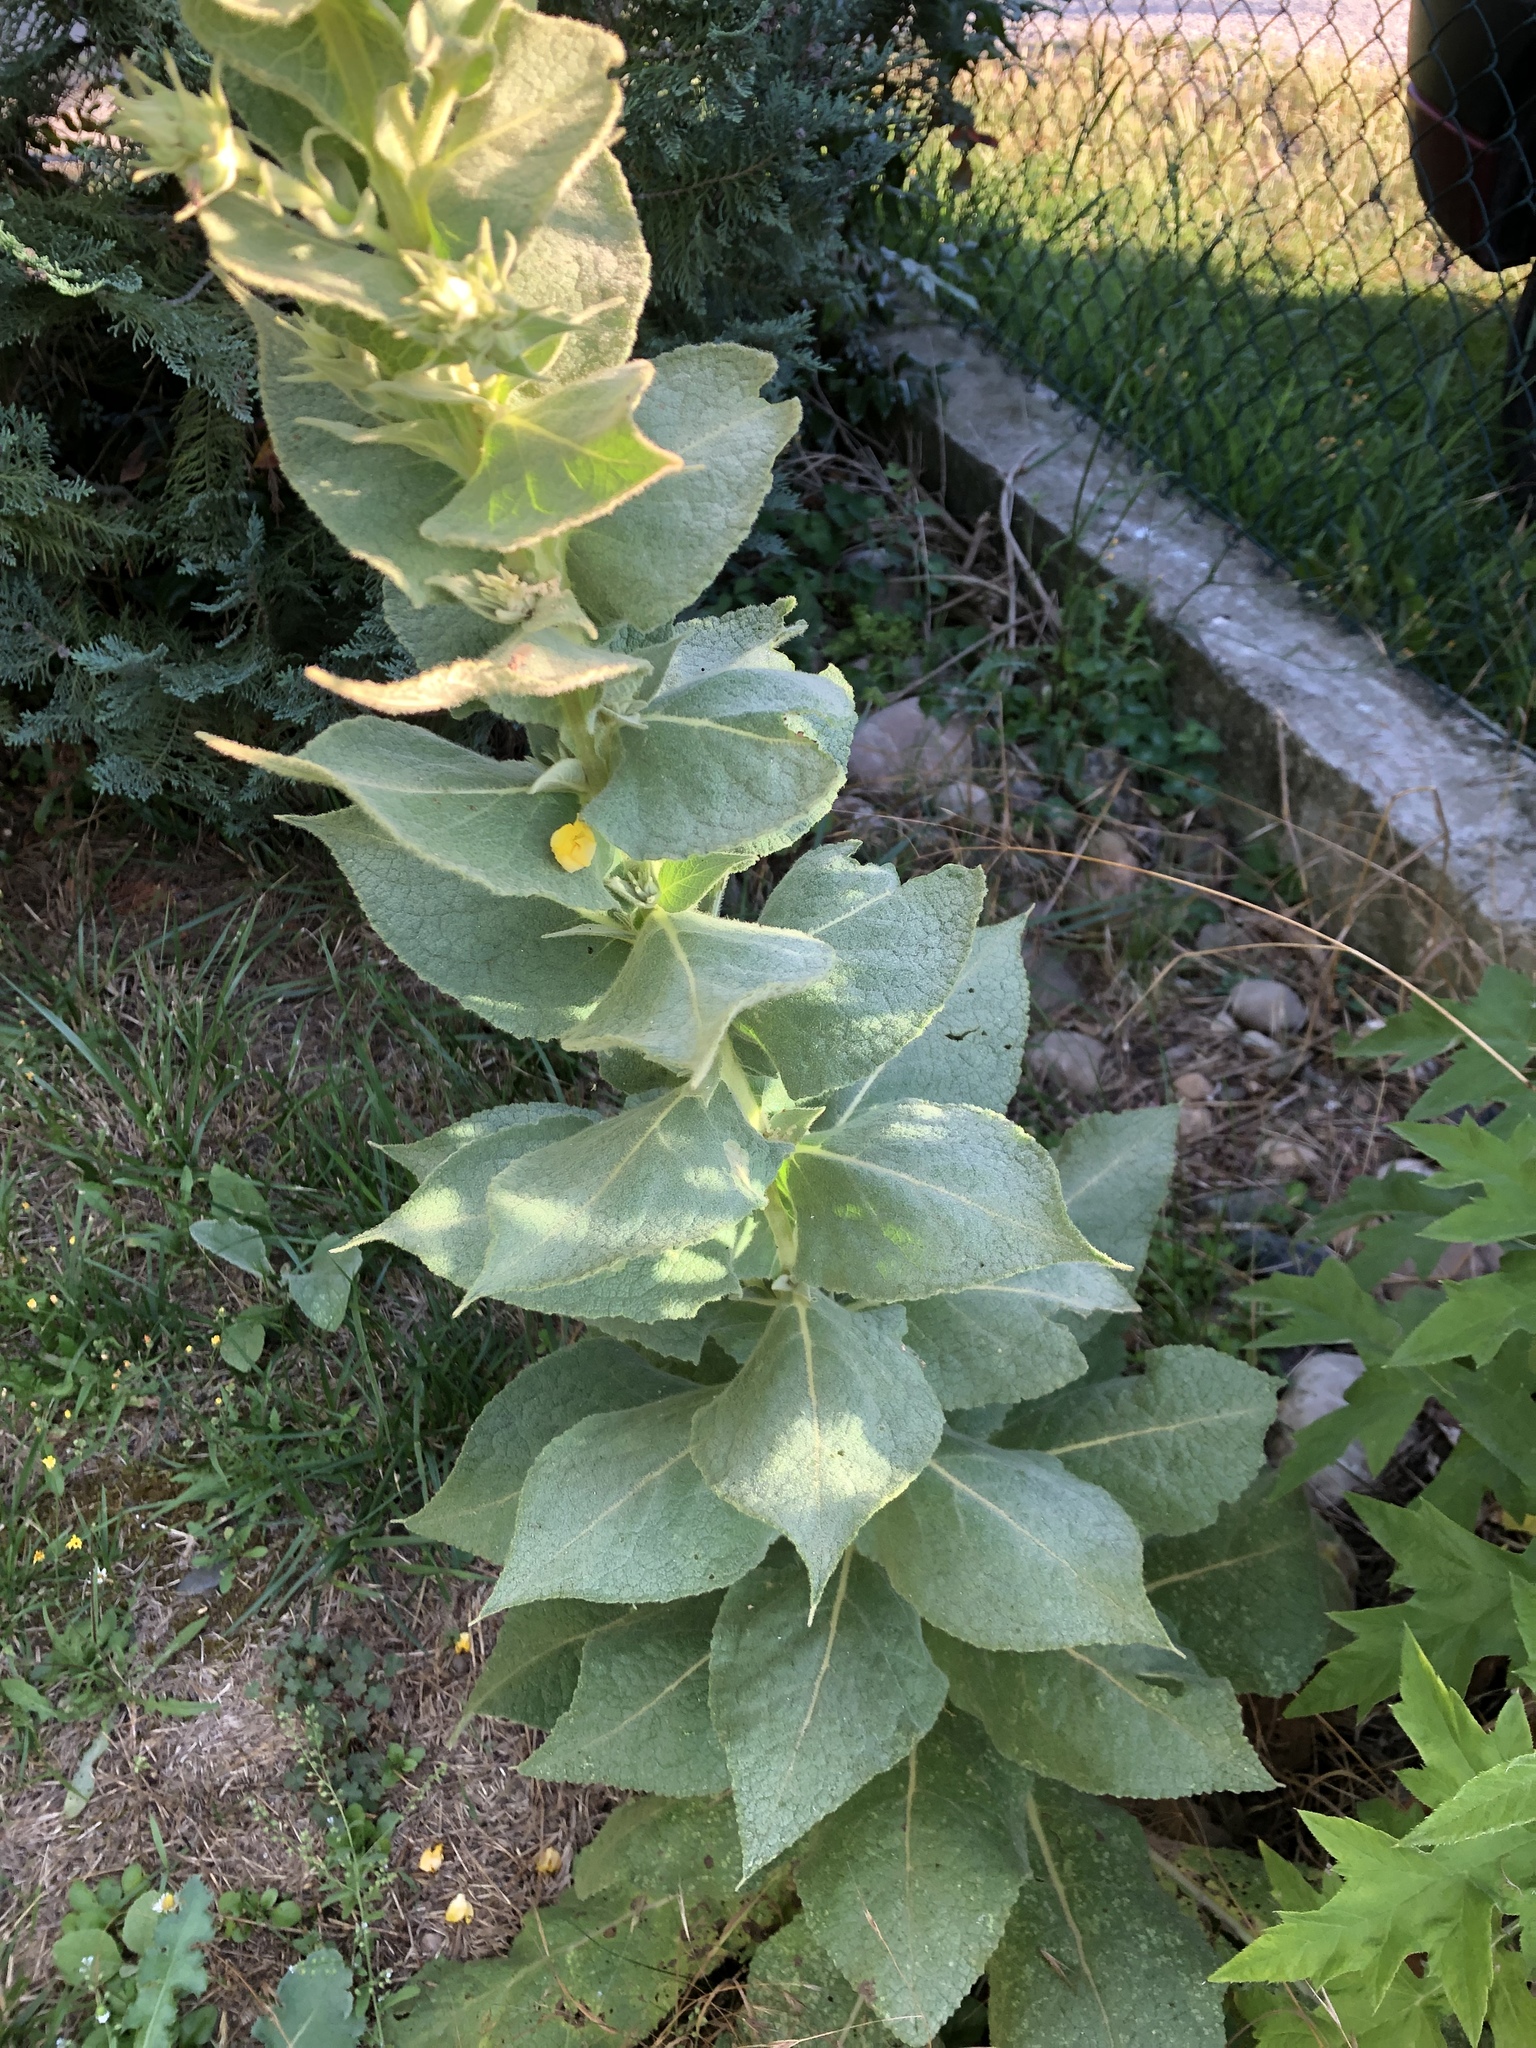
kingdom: Plantae
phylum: Tracheophyta
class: Magnoliopsida
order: Lamiales
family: Scrophulariaceae
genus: Verbascum
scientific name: Verbascum densiflorum
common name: Dense-flowered mullein
